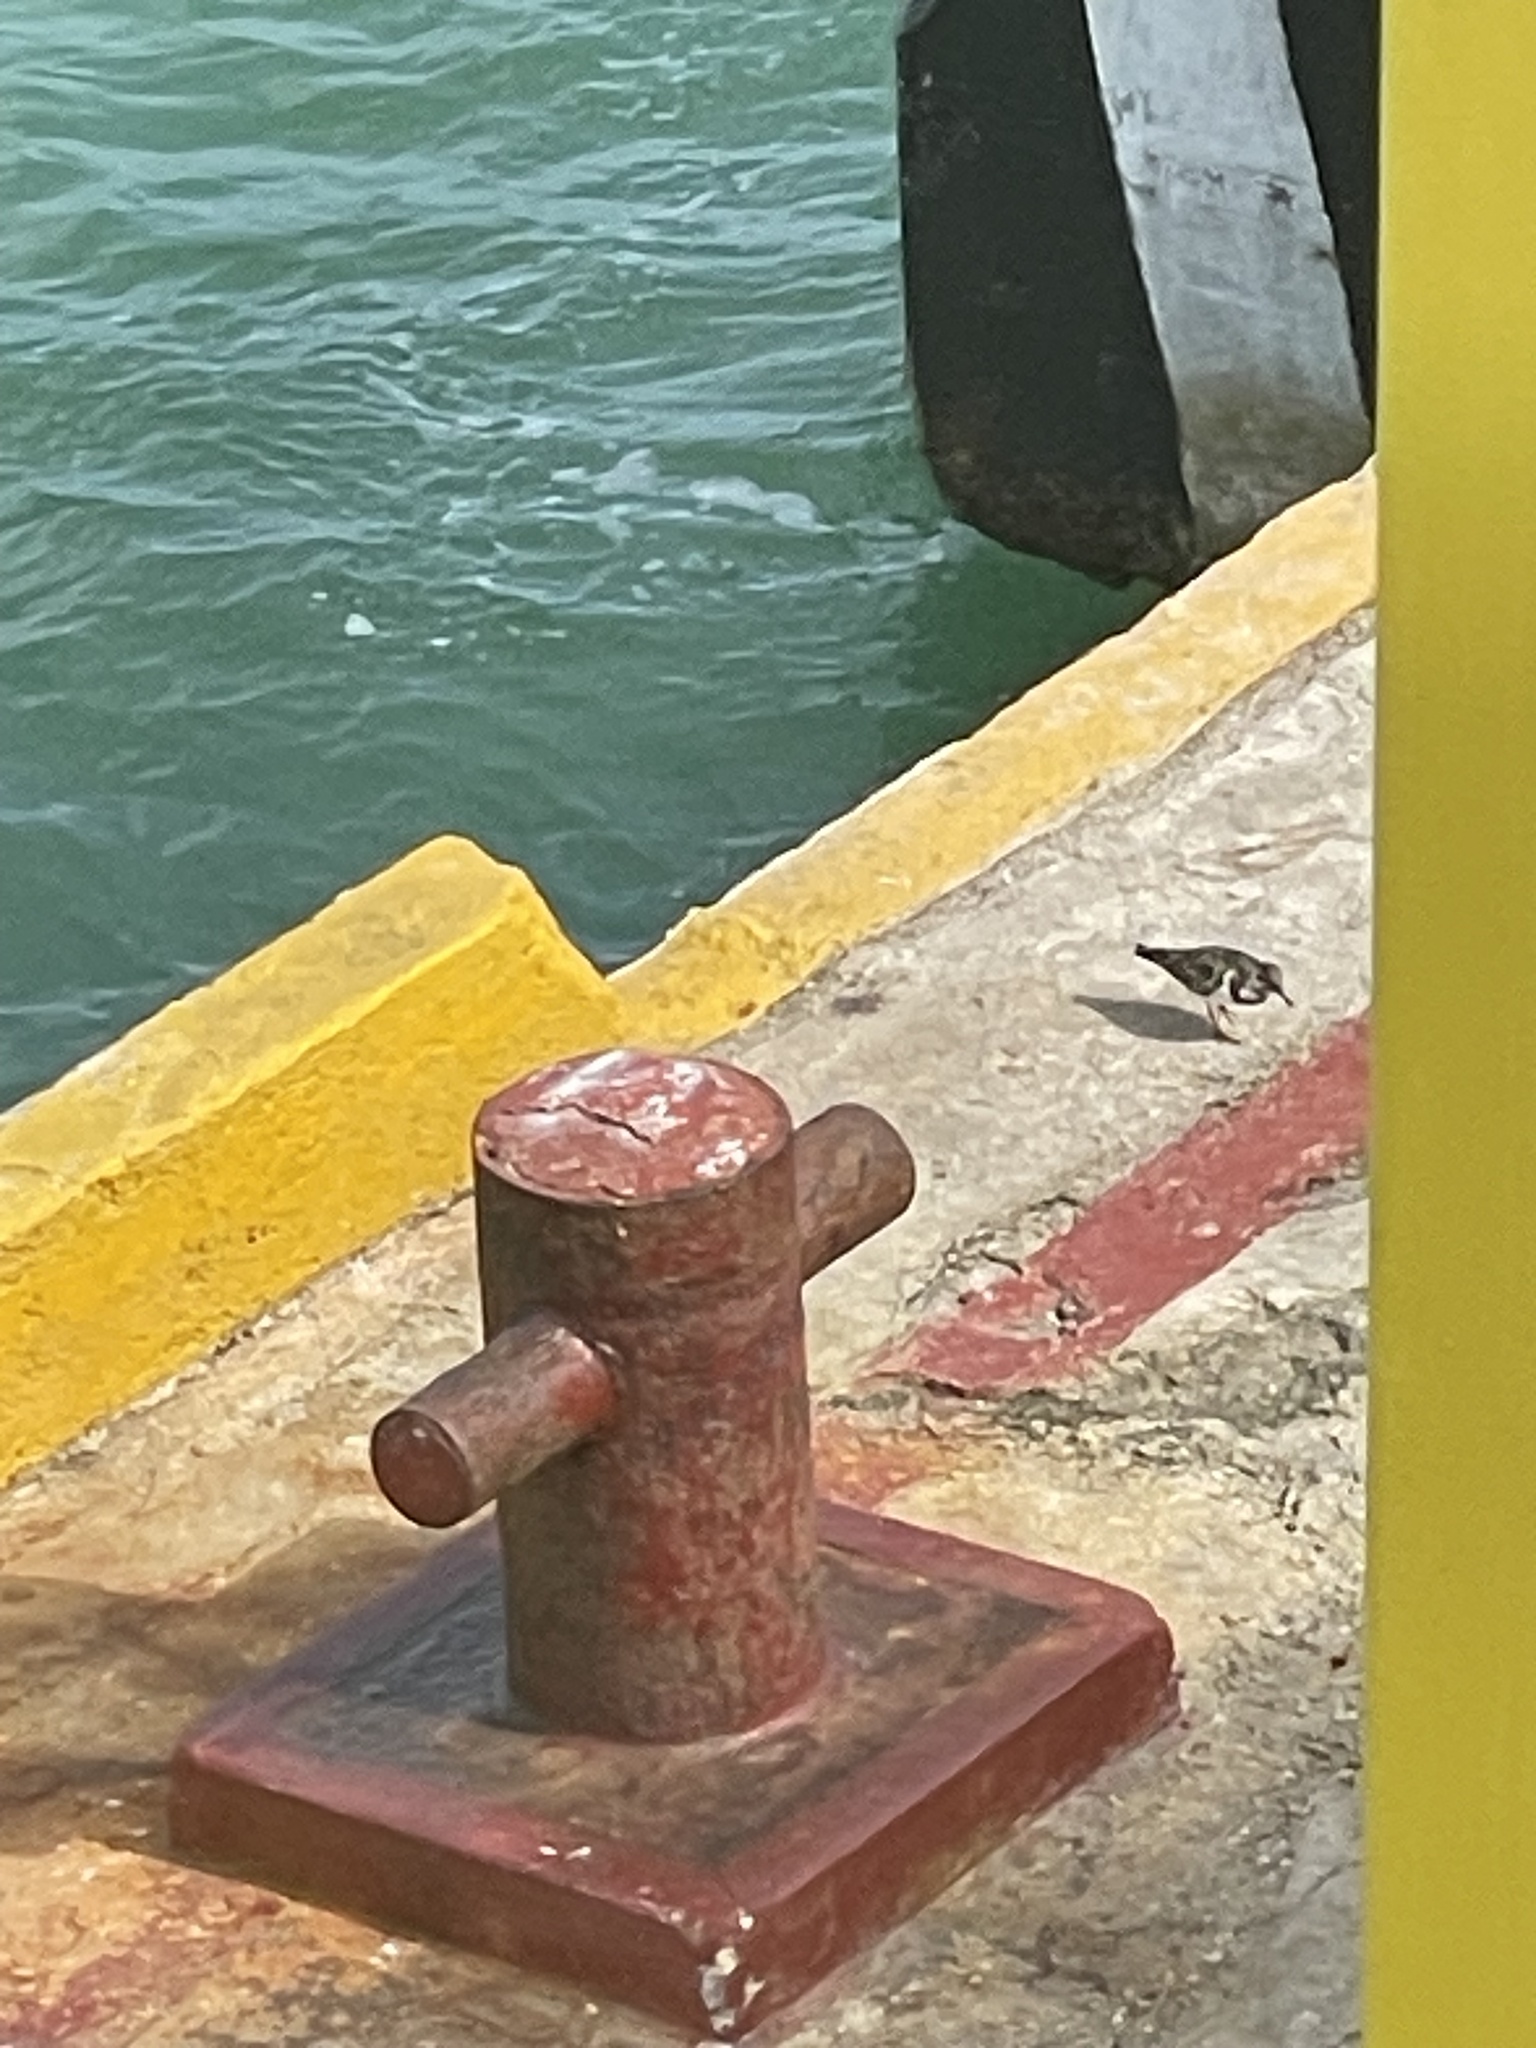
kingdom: Animalia
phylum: Chordata
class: Aves
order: Charadriiformes
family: Scolopacidae
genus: Arenaria
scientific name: Arenaria interpres
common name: Ruddy turnstone
